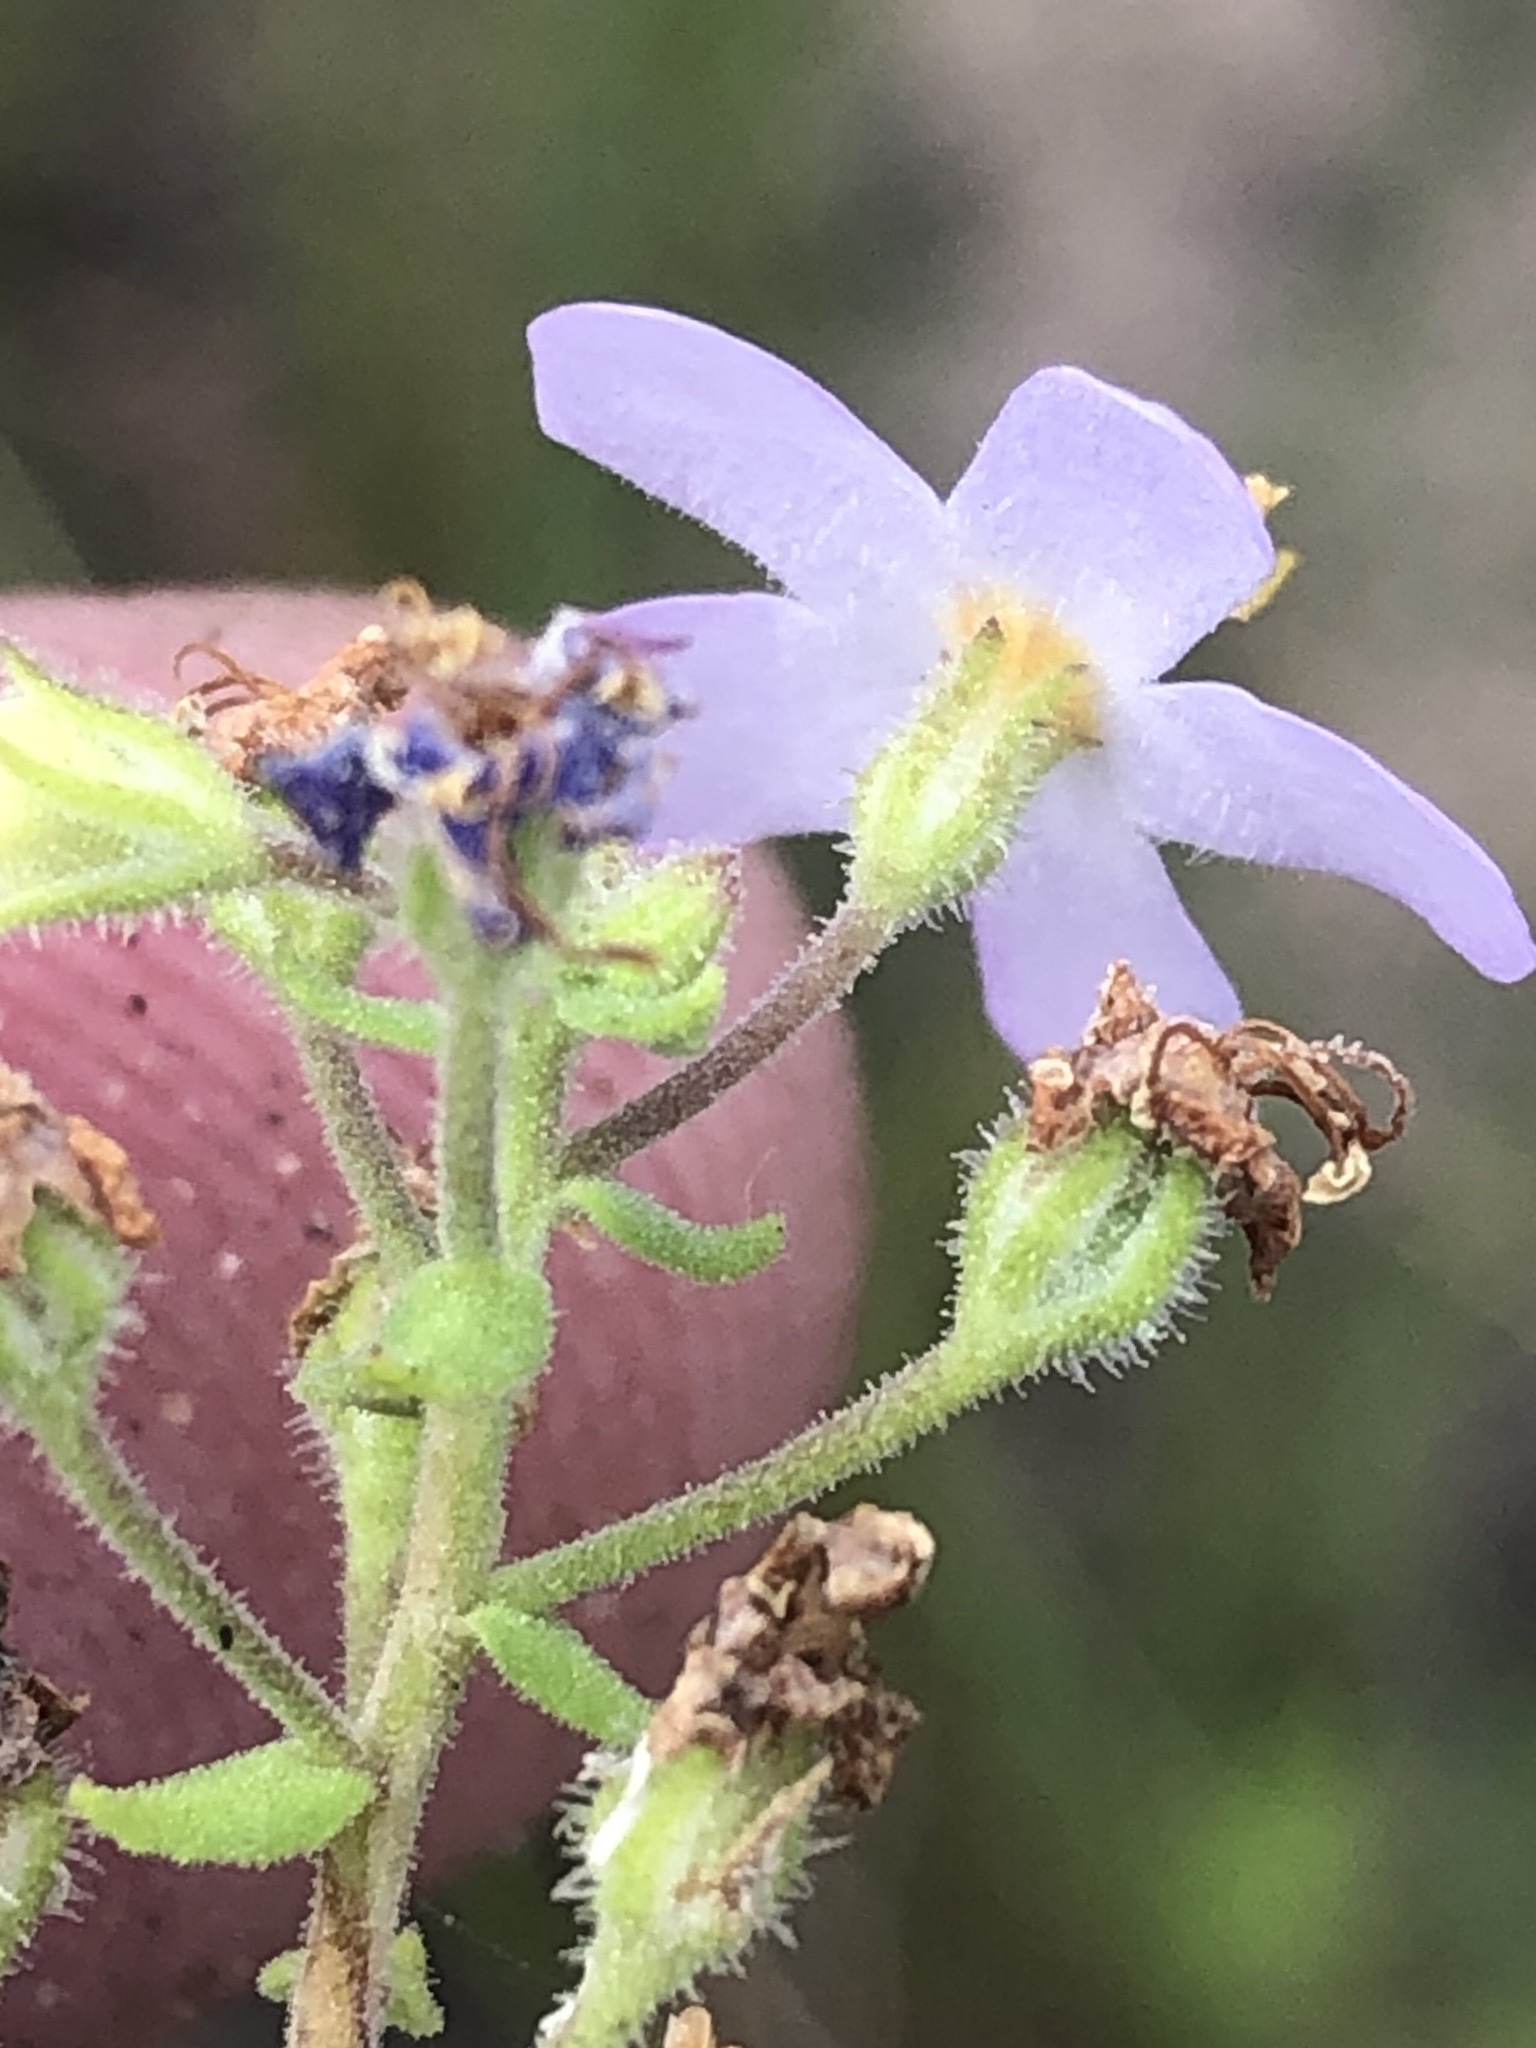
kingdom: Plantae
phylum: Tracheophyta
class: Magnoliopsida
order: Lamiales
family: Scrophulariaceae
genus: Chaenostoma
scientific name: Chaenostoma campanulatum
